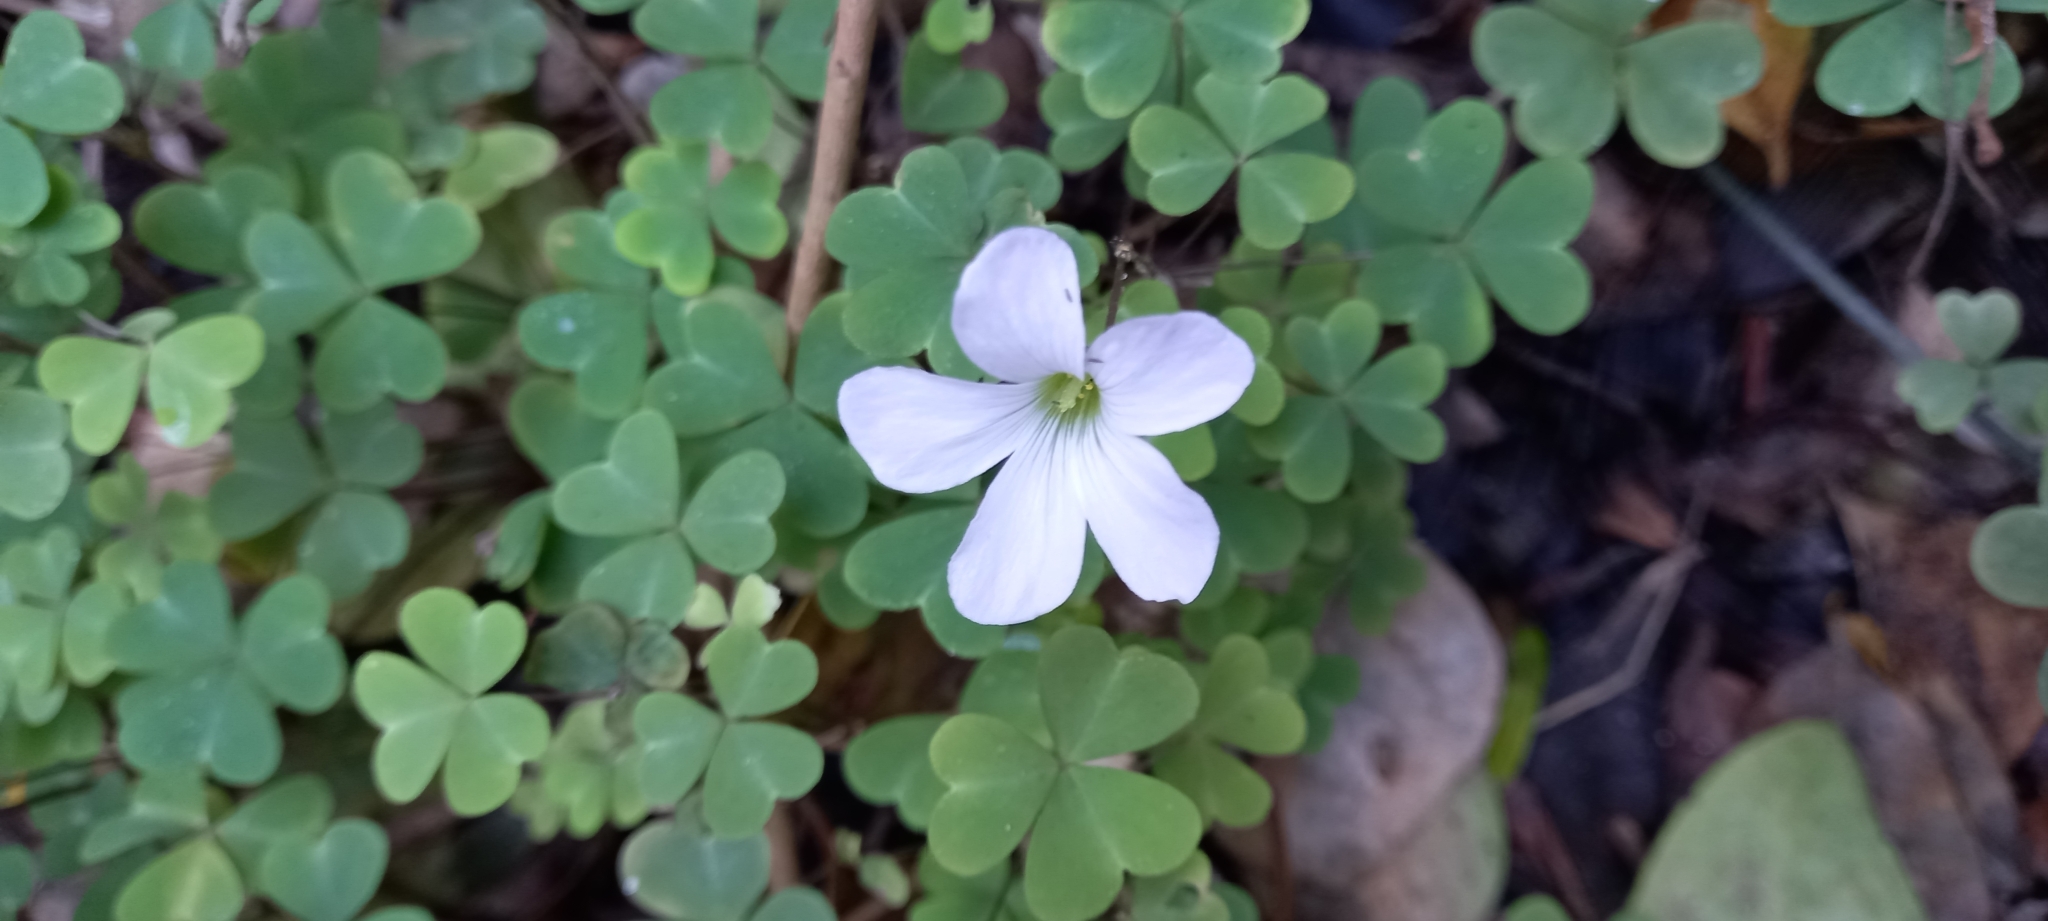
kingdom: Plantae
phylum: Tracheophyta
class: Magnoliopsida
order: Oxalidales
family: Oxalidaceae
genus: Oxalis
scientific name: Oxalis incarnata
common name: Pale pink-sorrel
